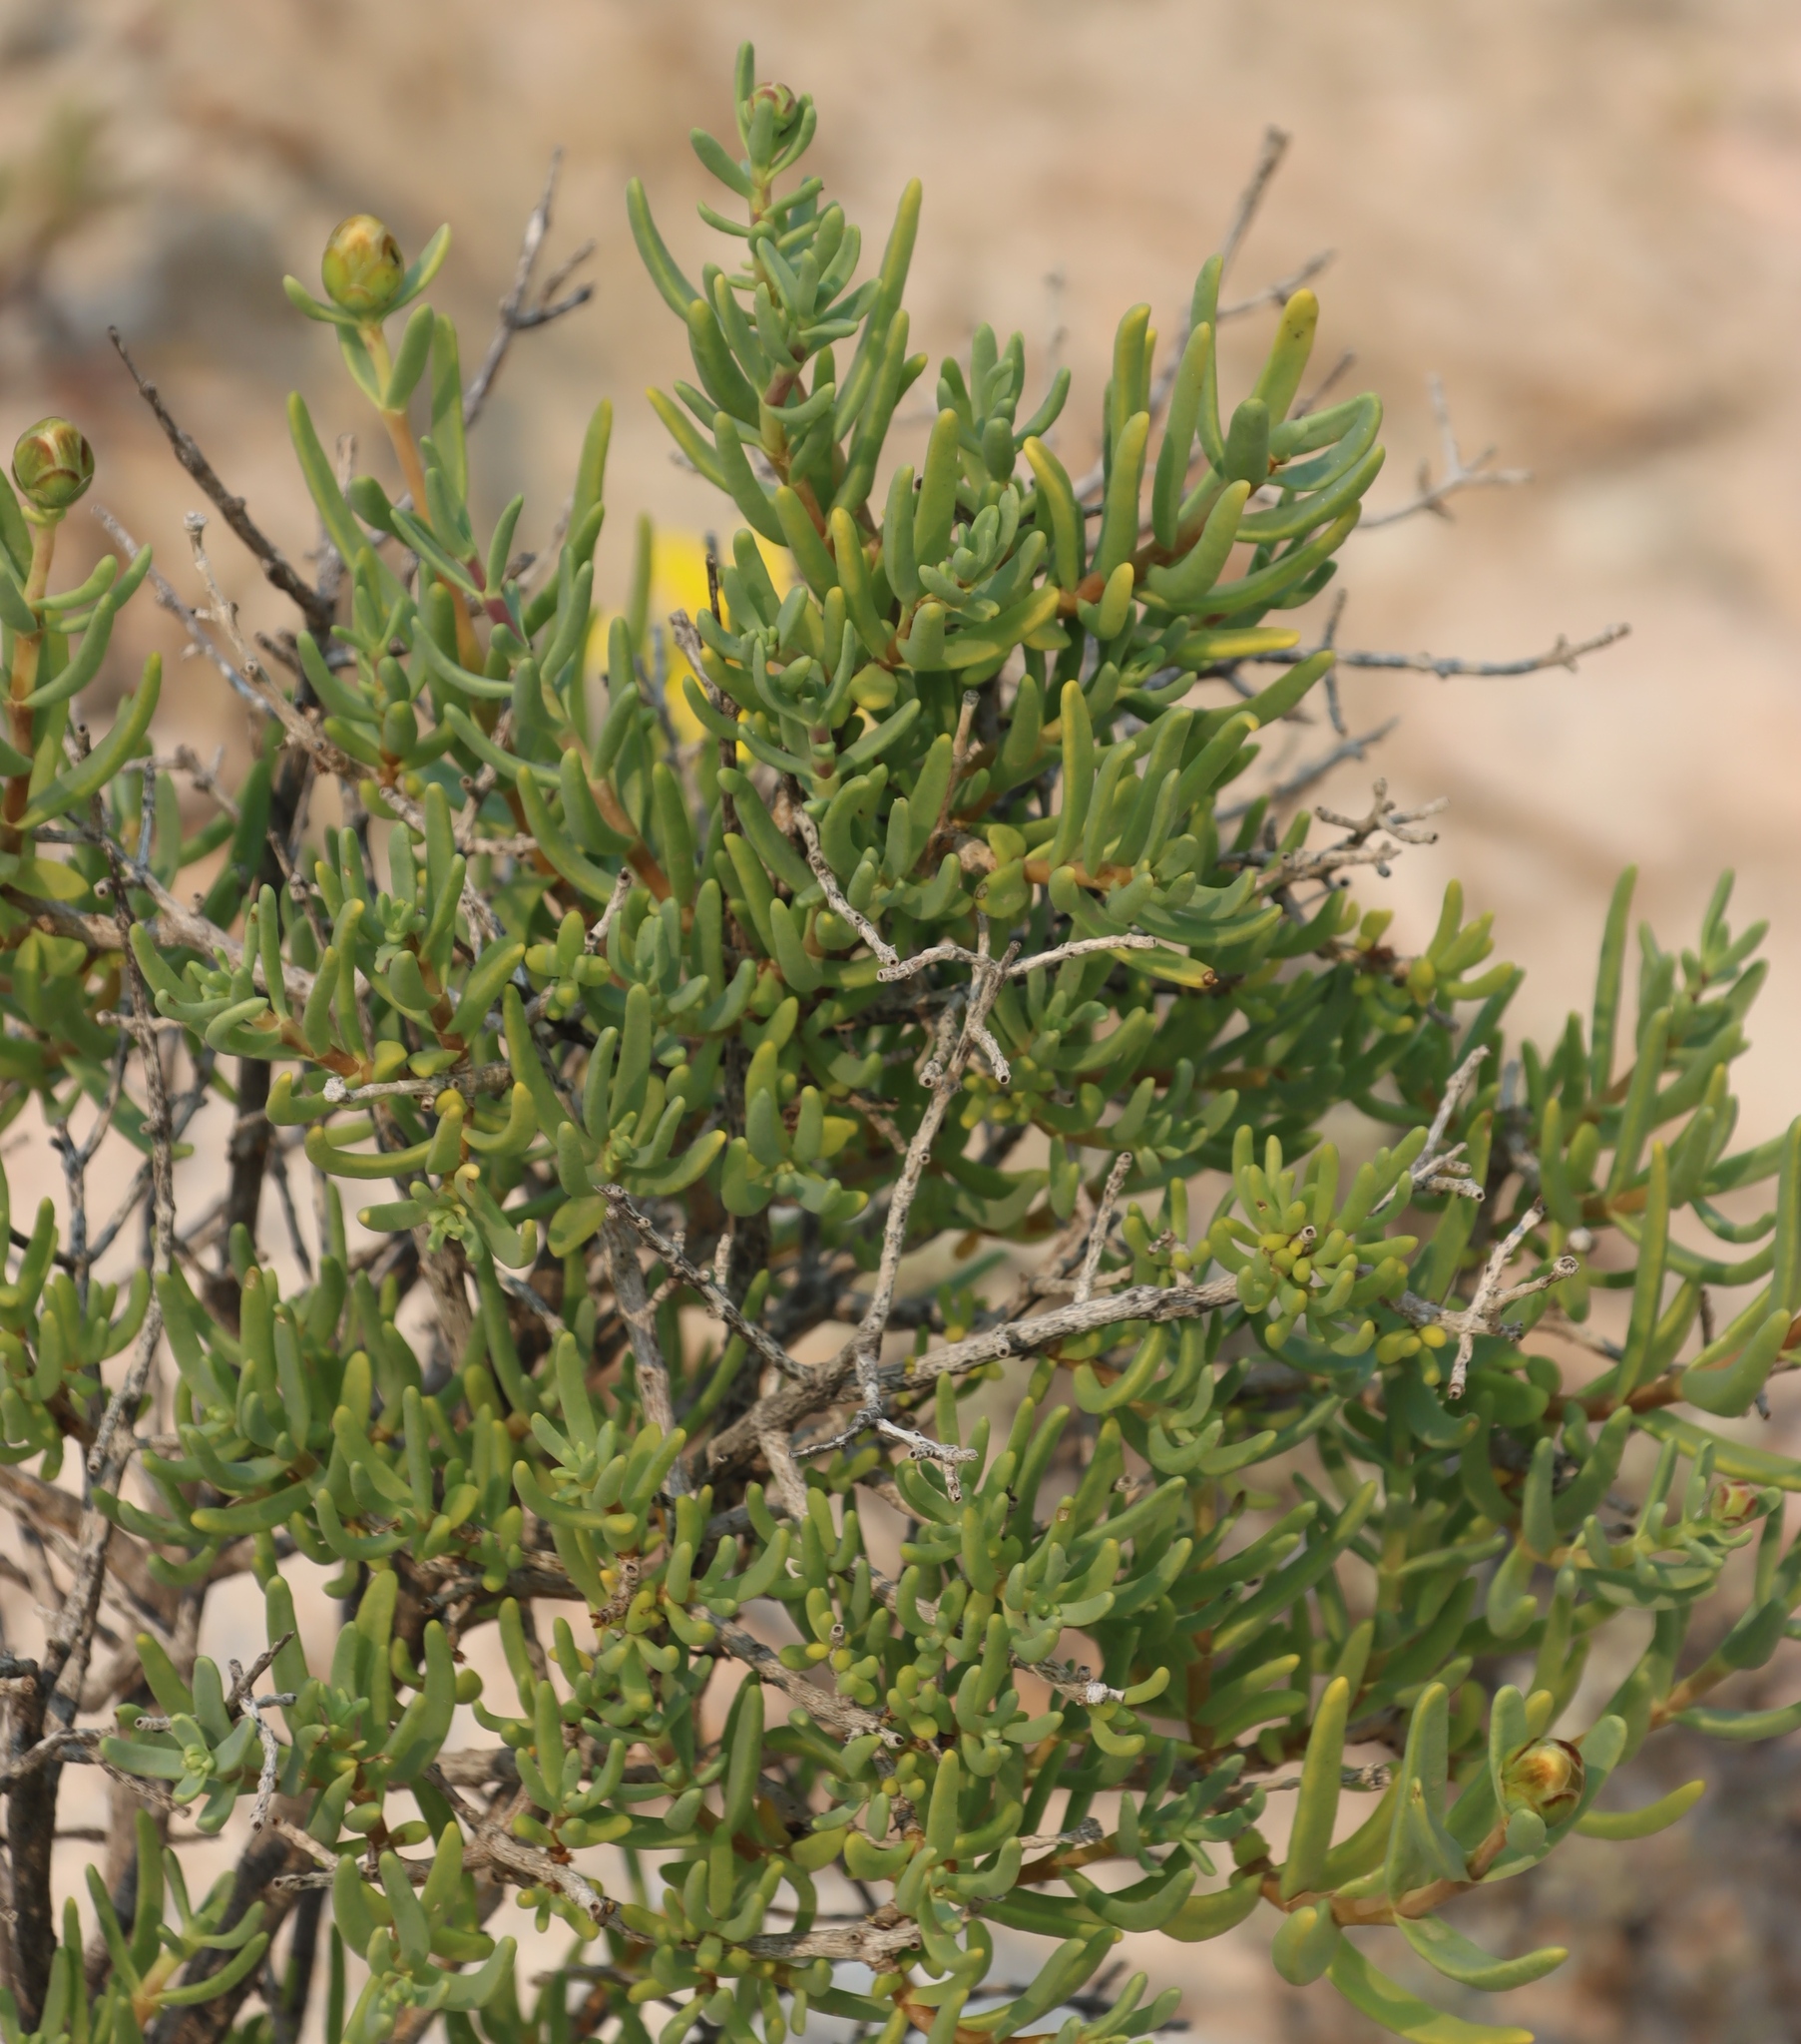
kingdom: Plantae
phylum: Tracheophyta
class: Magnoliopsida
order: Asterales
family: Asteraceae
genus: Pteronia
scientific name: Pteronia glabrata
